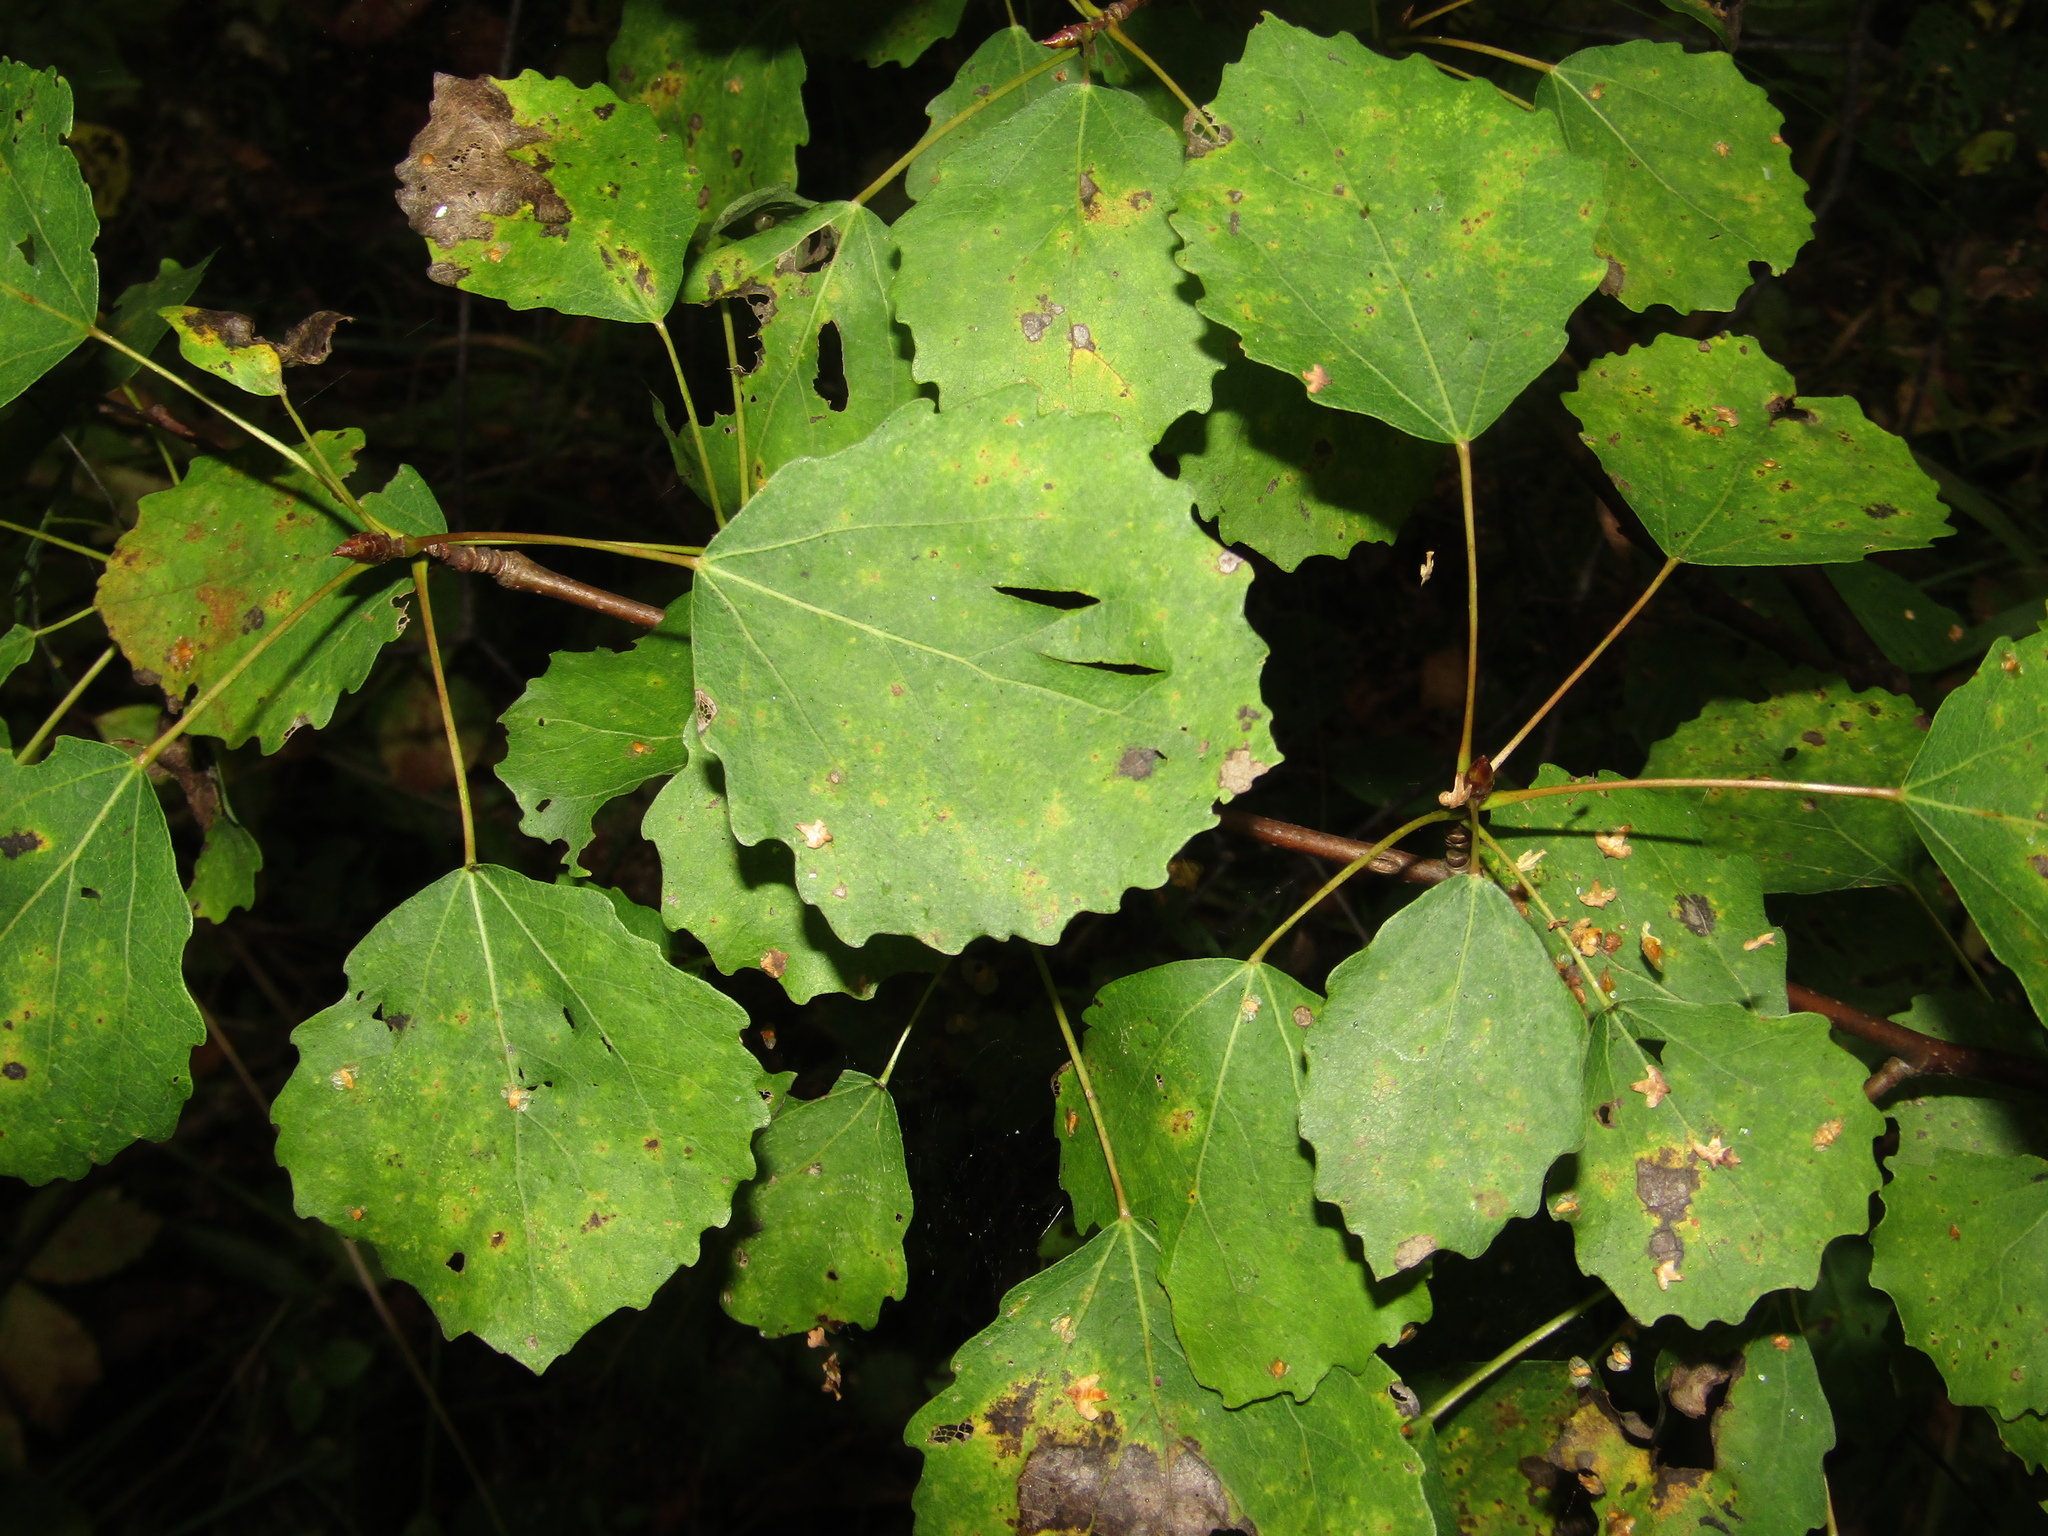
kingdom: Plantae
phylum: Tracheophyta
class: Magnoliopsida
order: Malpighiales
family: Salicaceae
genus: Populus
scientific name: Populus tremula
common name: European aspen
